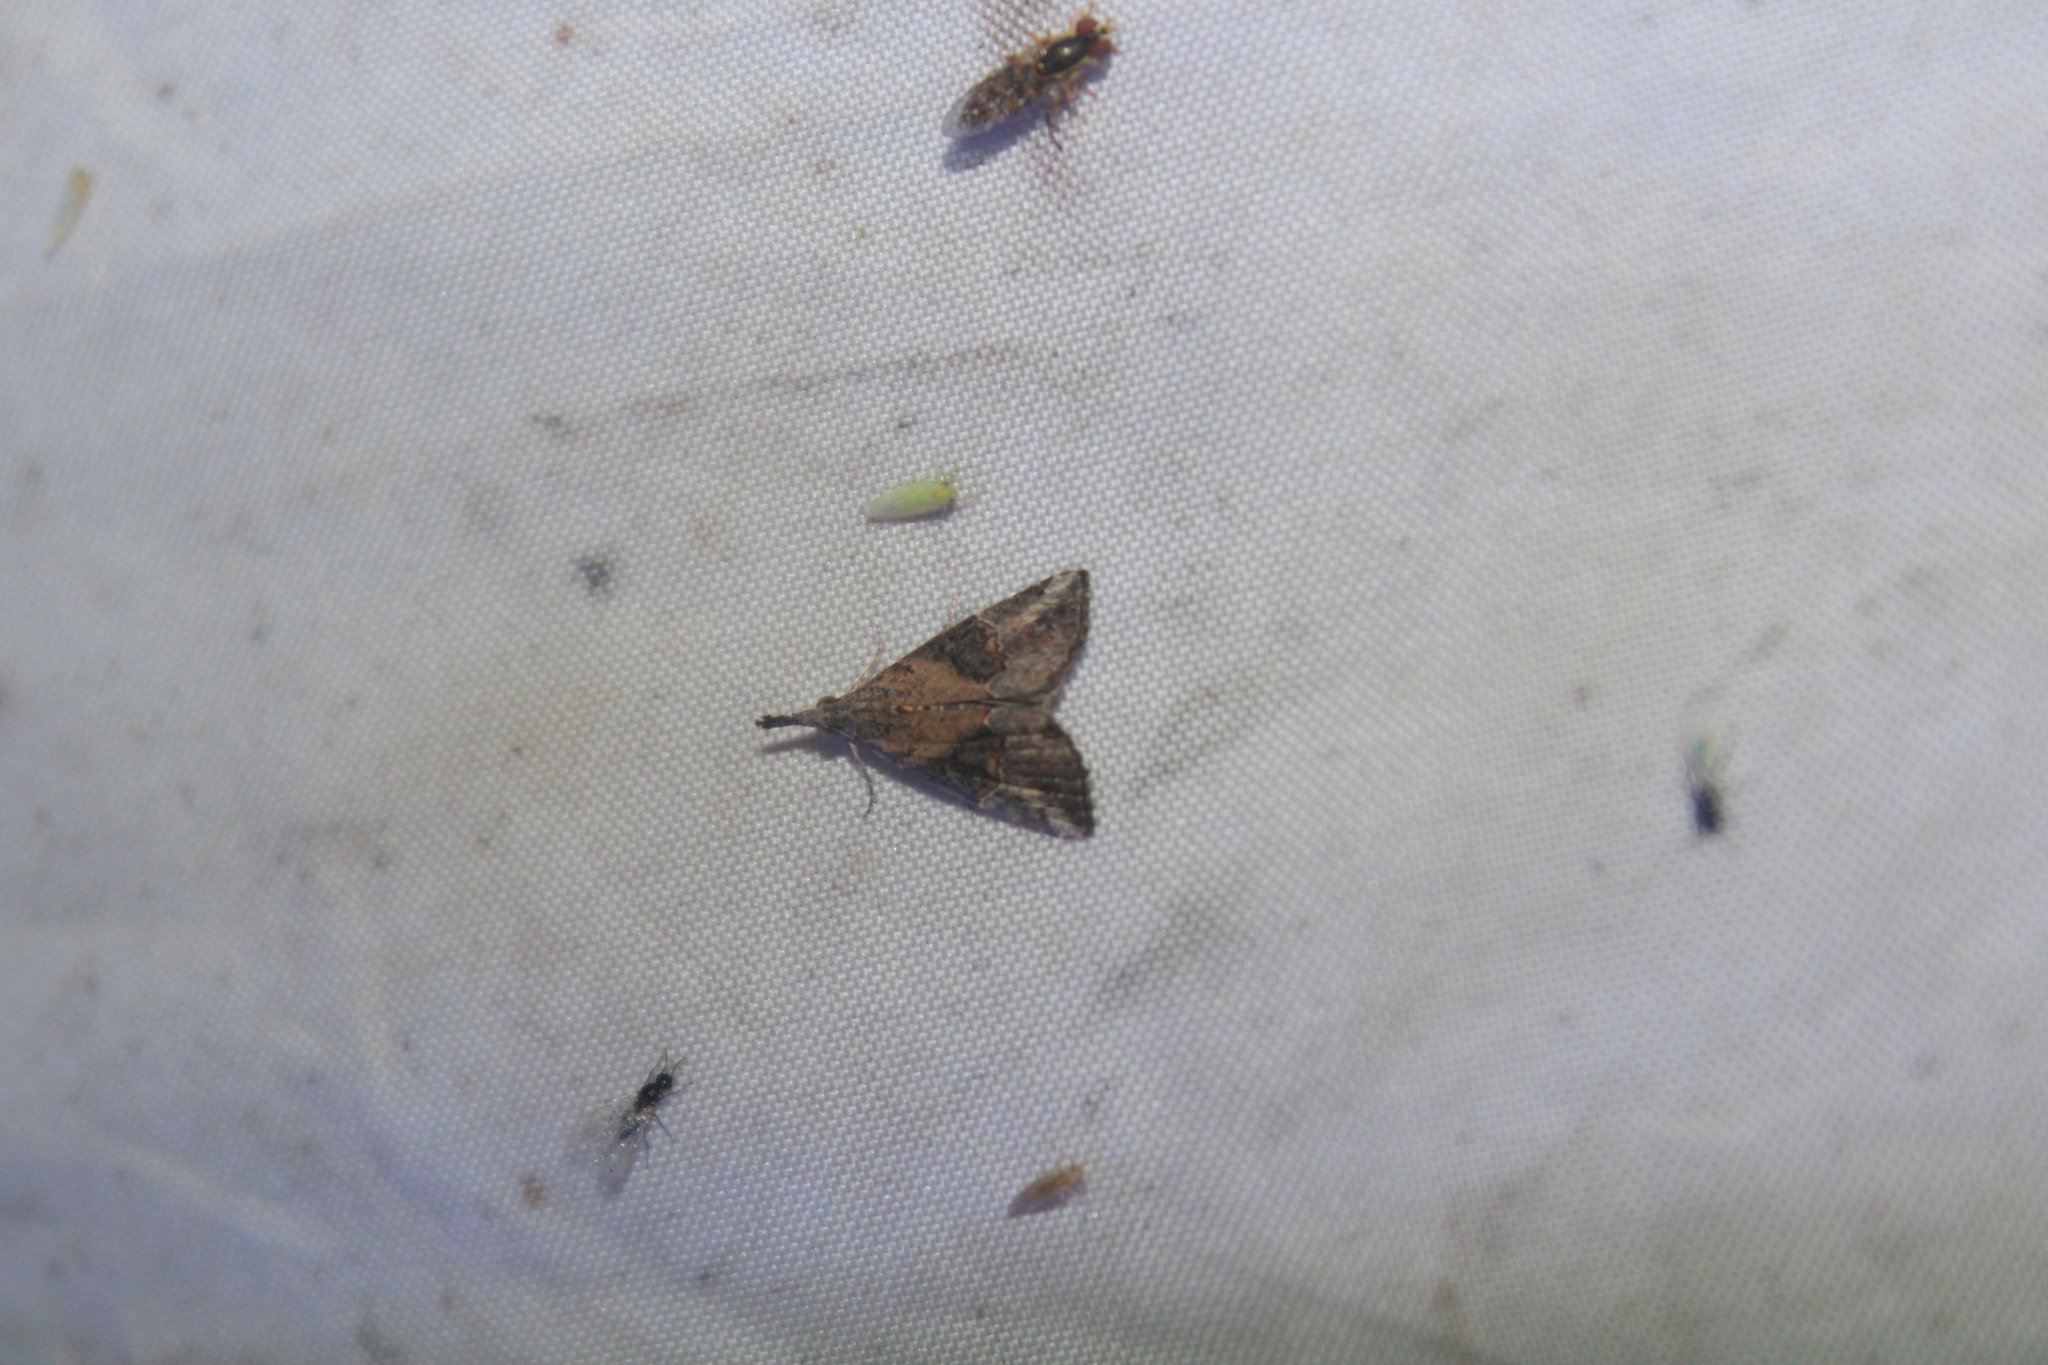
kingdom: Animalia
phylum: Arthropoda
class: Insecta
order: Lepidoptera
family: Erebidae
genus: Hypena
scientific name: Hypena minualis
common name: Sooty snout
